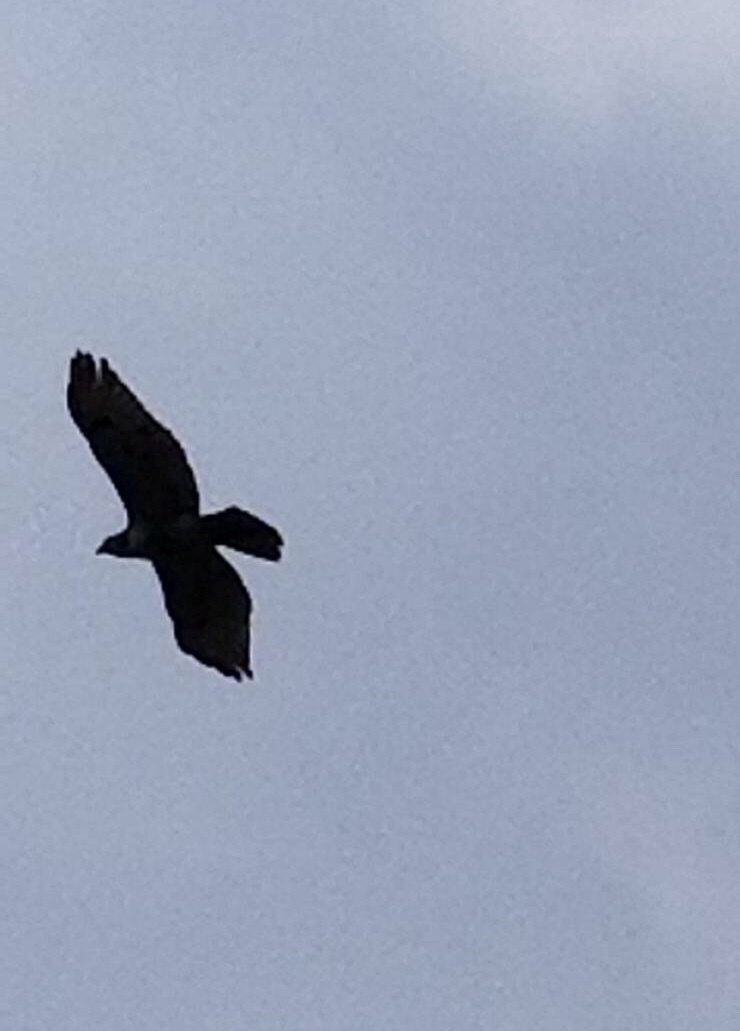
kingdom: Animalia
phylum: Chordata
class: Aves
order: Accipitriformes
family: Accipitridae
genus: Buteo
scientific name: Buteo jamaicensis
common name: Red-tailed hawk
